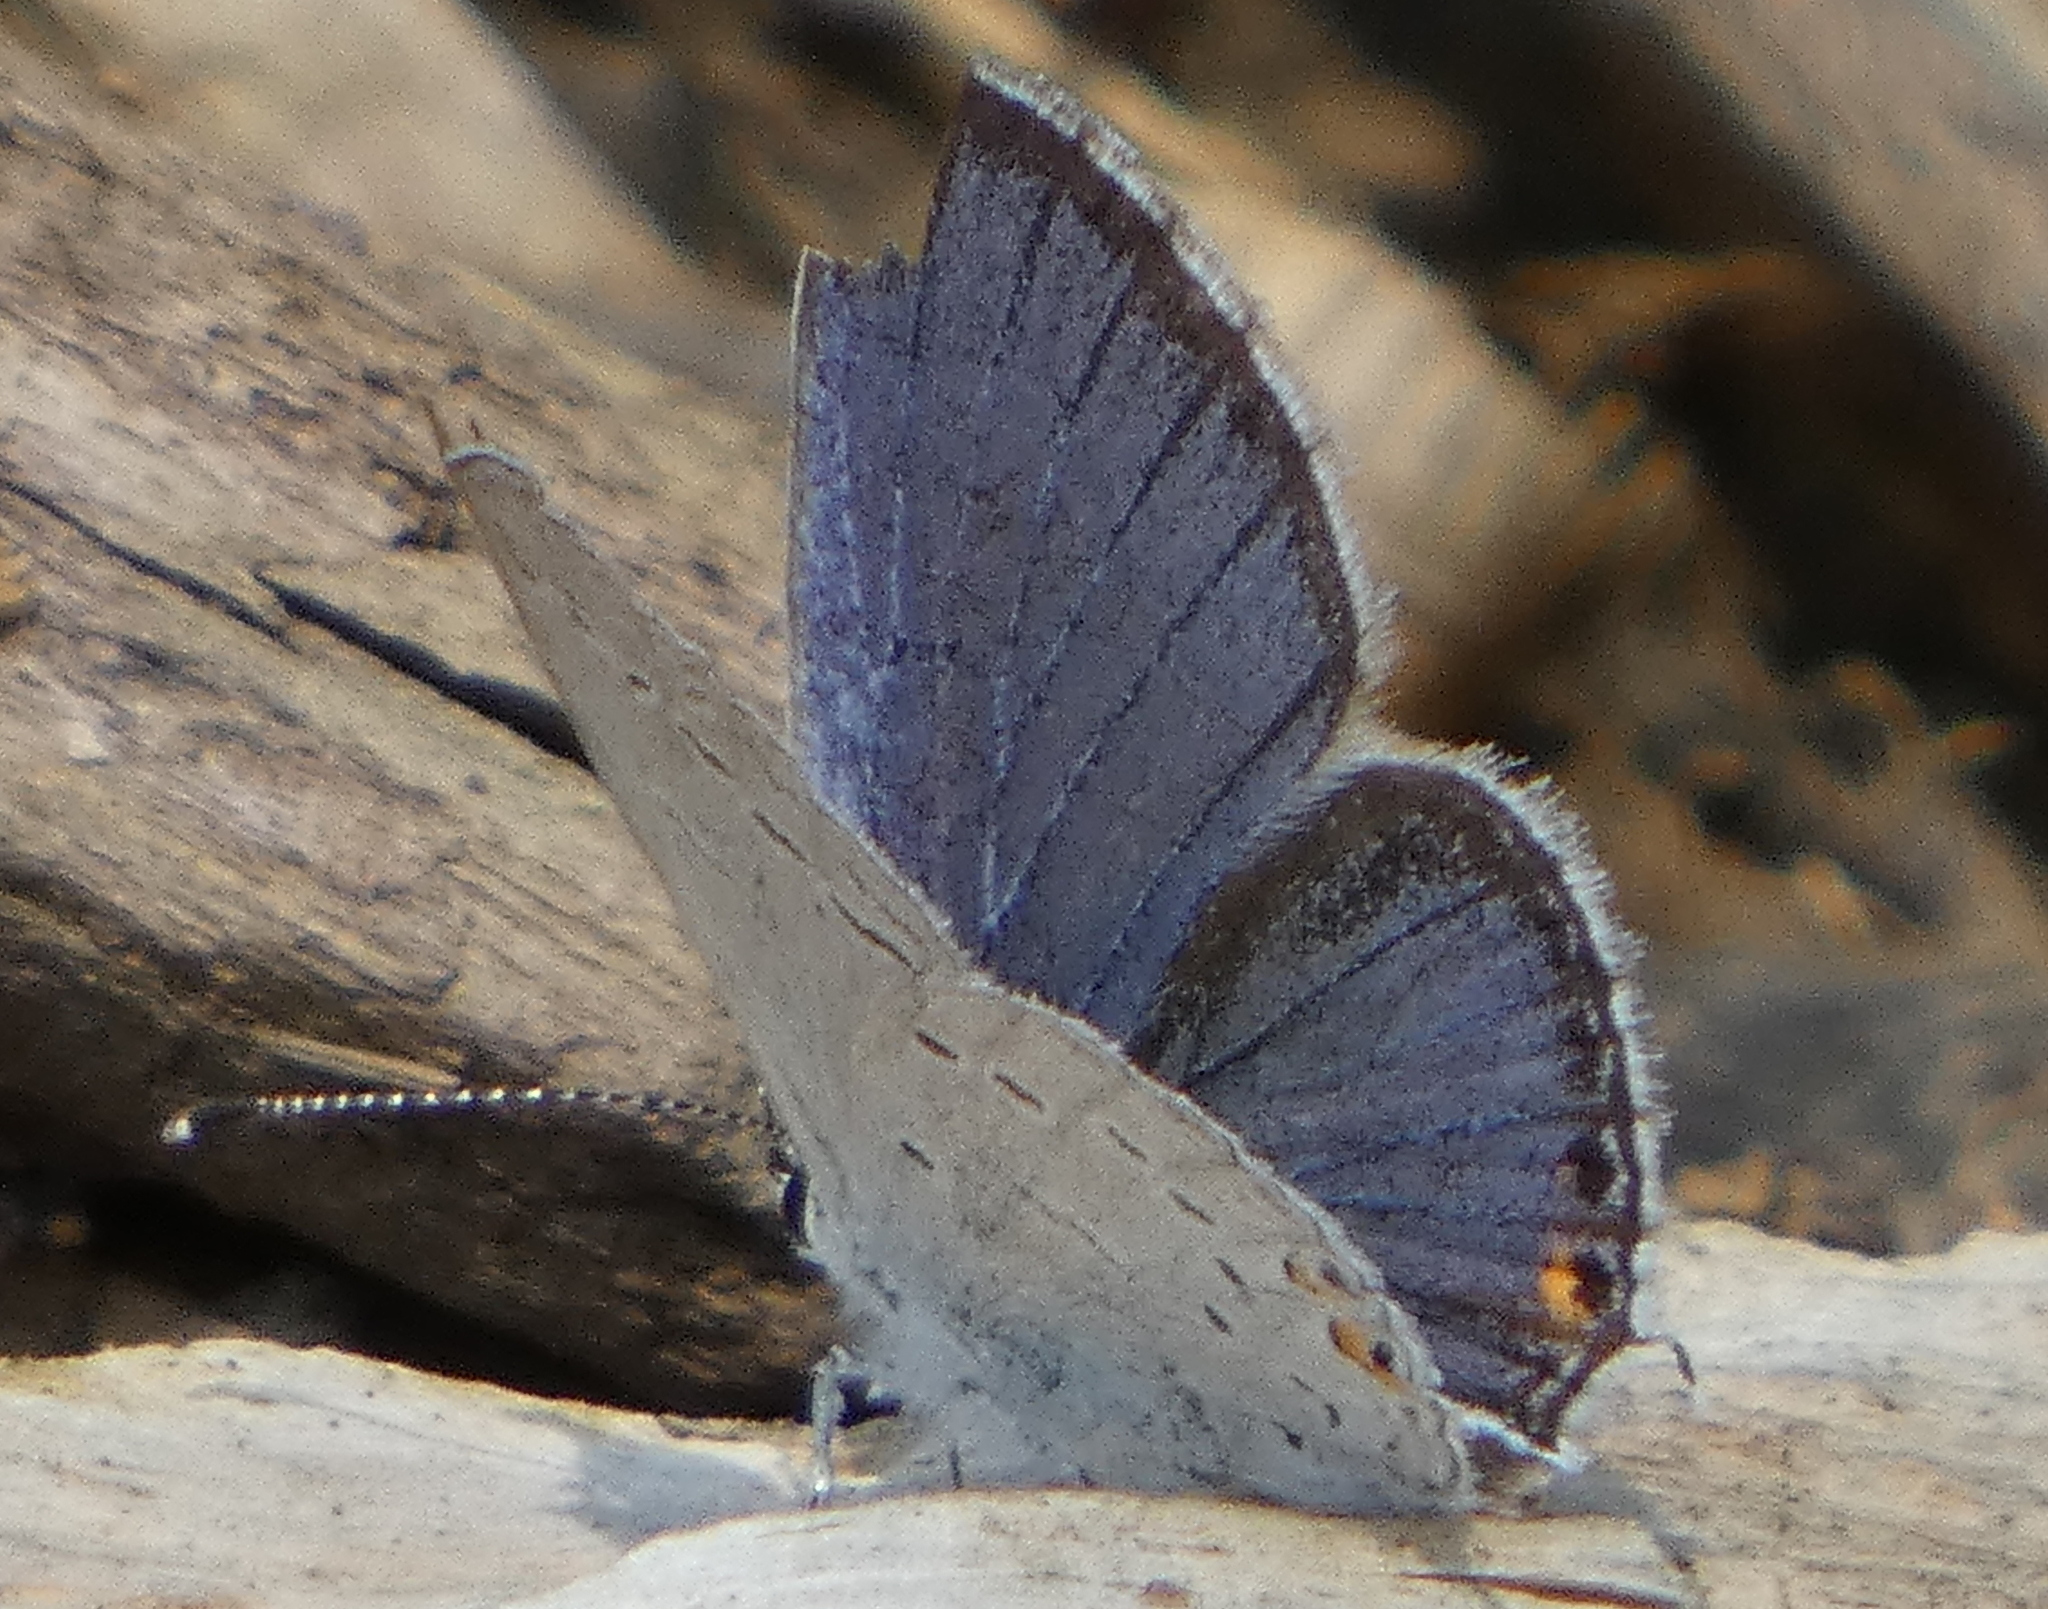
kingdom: Animalia
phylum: Arthropoda
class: Insecta
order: Lepidoptera
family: Lycaenidae
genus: Elkalyce
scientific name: Elkalyce comyntas
